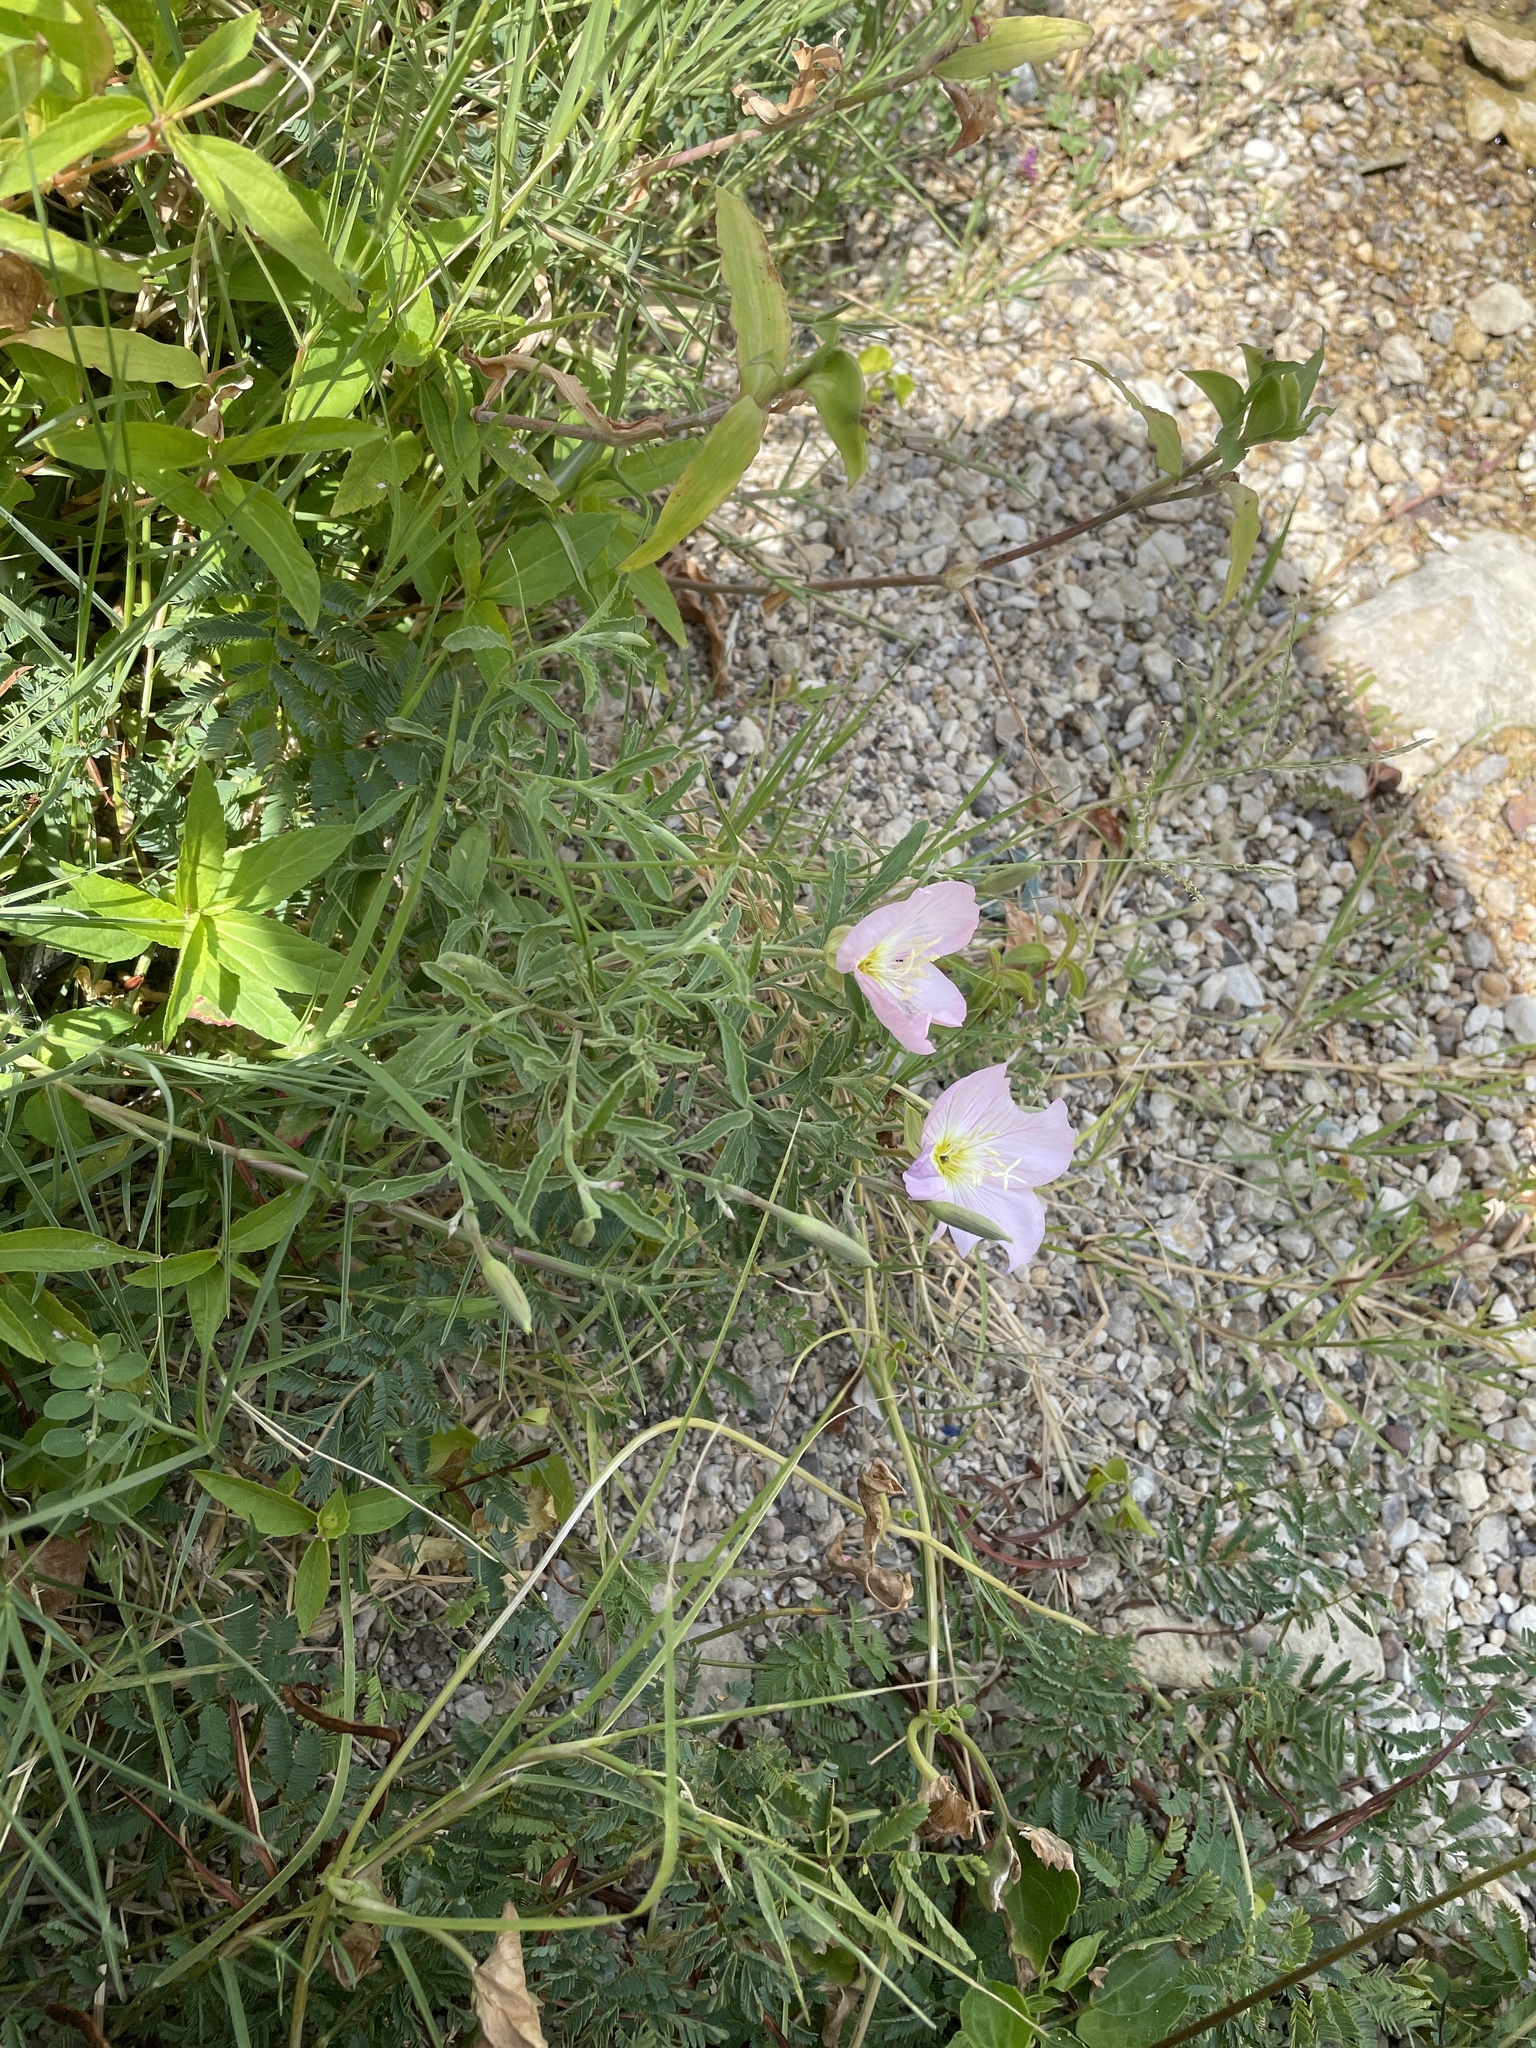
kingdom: Plantae
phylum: Tracheophyta
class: Magnoliopsida
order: Myrtales
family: Onagraceae
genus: Oenothera
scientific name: Oenothera speciosa
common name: White evening-primrose
